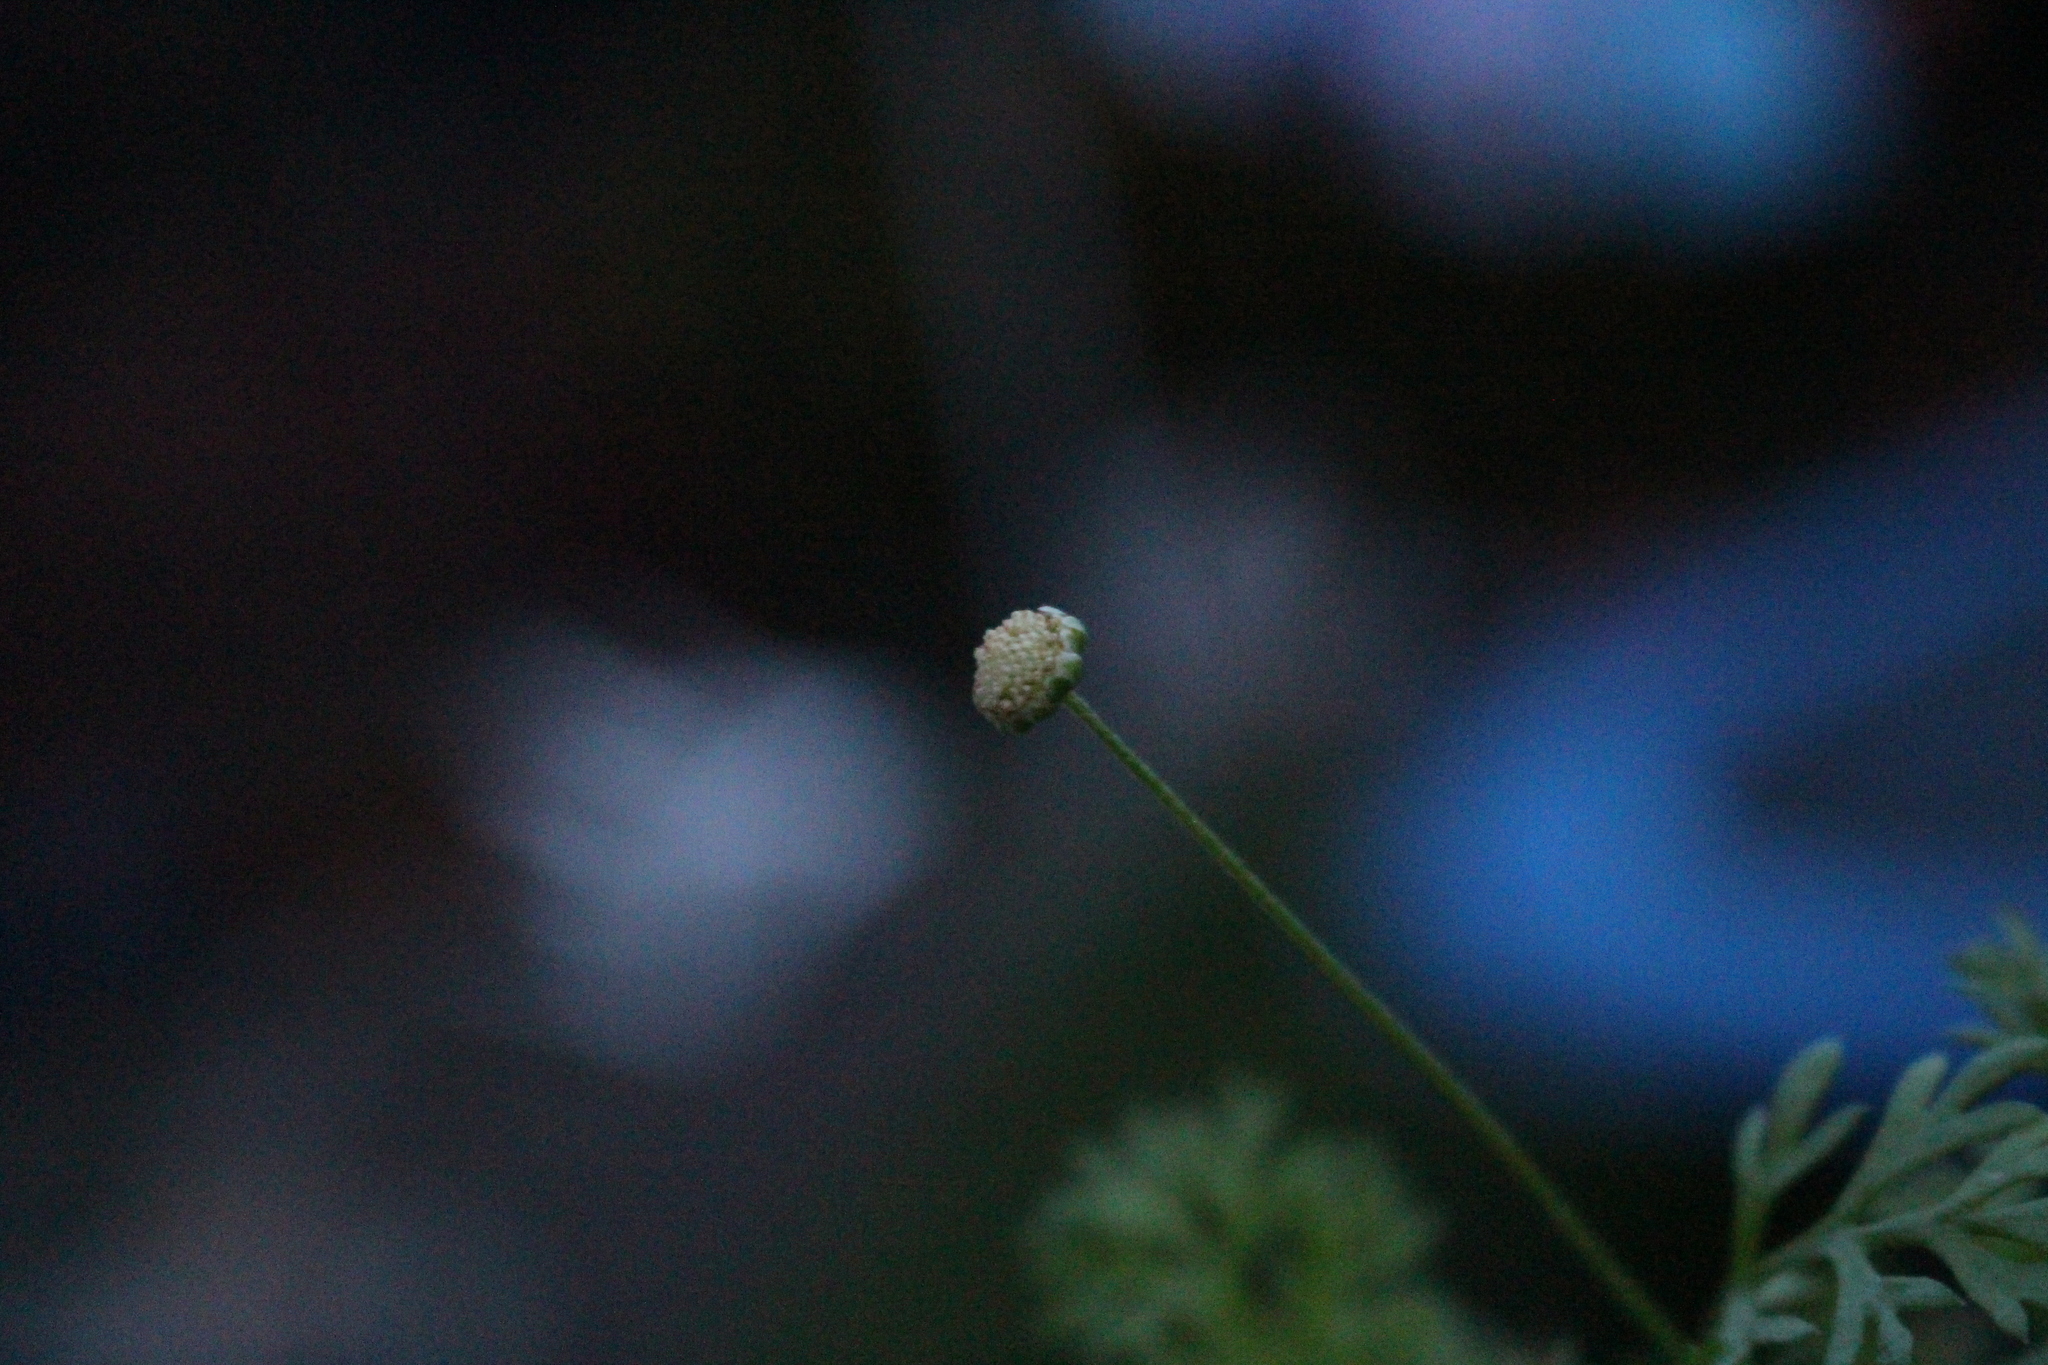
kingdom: Plantae
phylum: Tracheophyta
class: Magnoliopsida
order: Asterales
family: Asteraceae
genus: Cotula
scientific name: Cotula australis
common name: Australian waterbuttons
